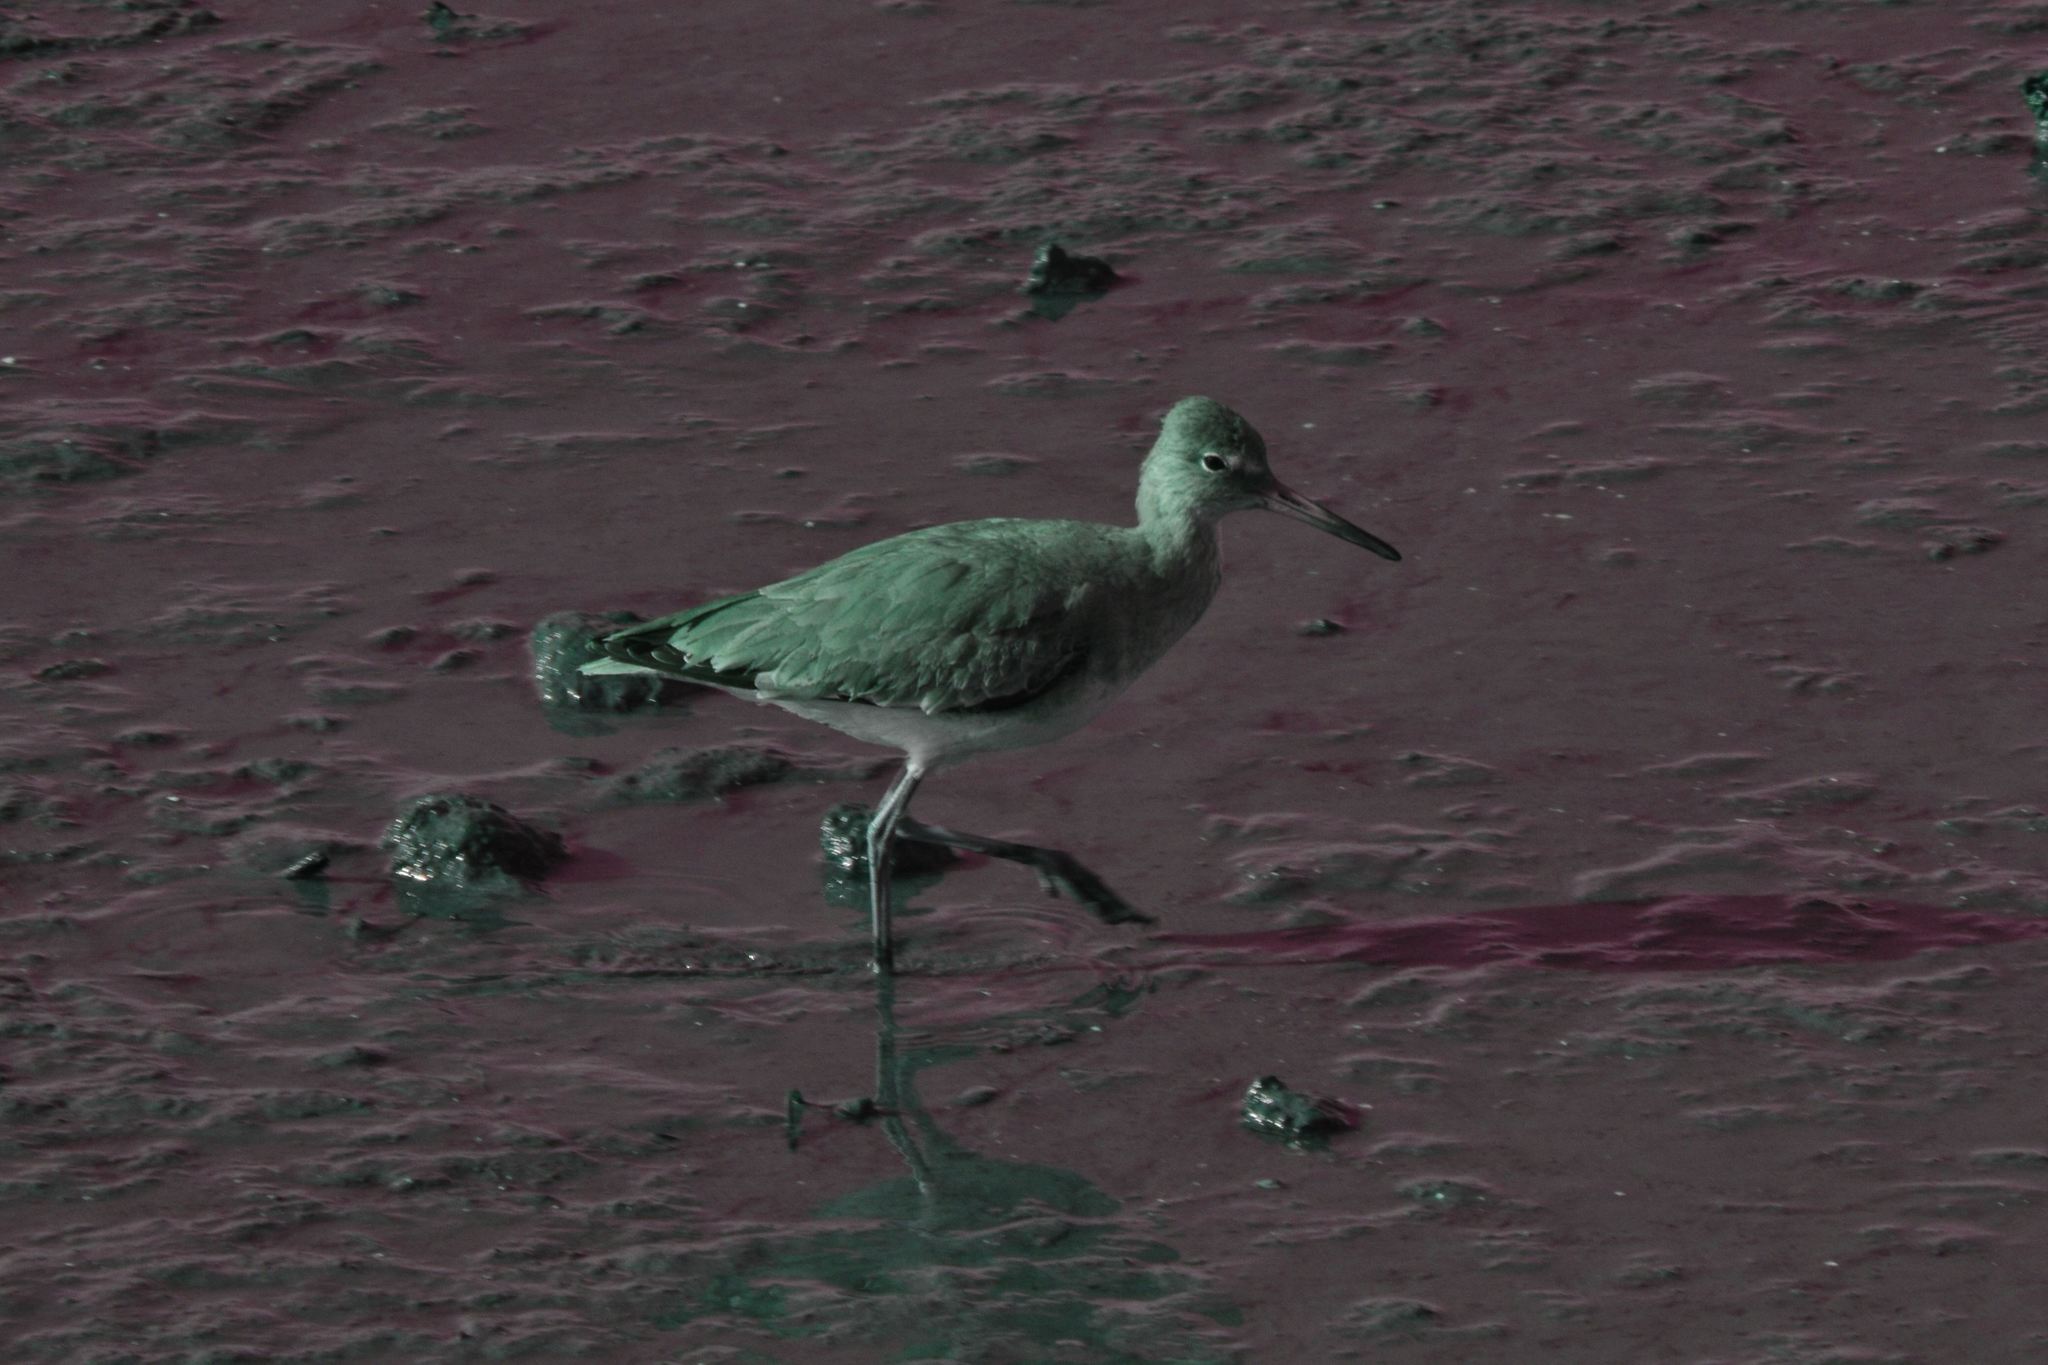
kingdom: Animalia
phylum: Chordata
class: Aves
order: Charadriiformes
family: Scolopacidae
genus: Tringa
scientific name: Tringa semipalmata
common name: Willet
